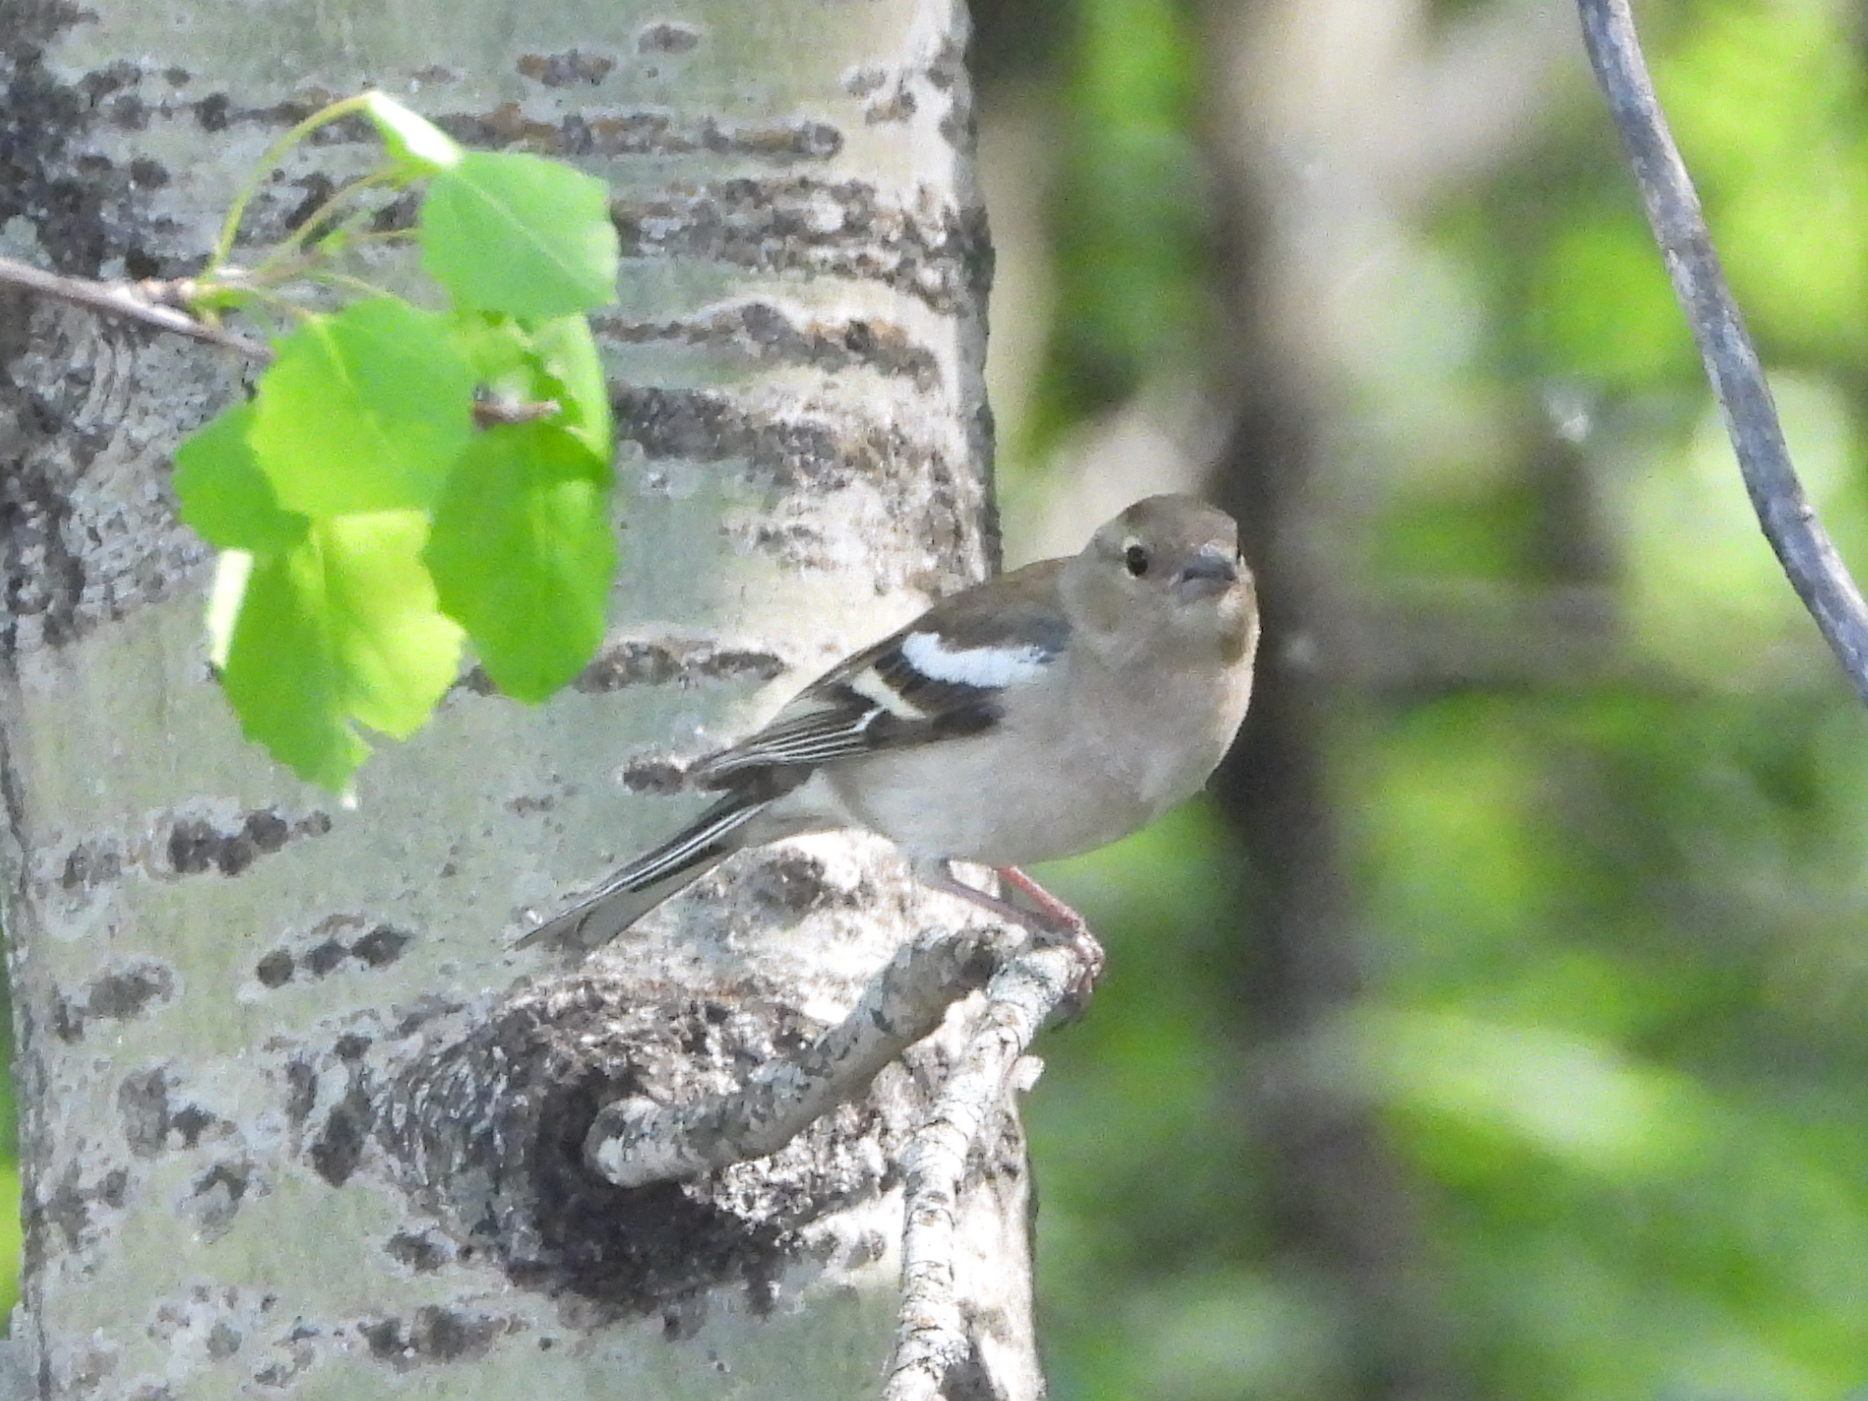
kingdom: Animalia
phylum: Chordata
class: Aves
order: Passeriformes
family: Fringillidae
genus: Fringilla
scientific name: Fringilla coelebs
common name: Common chaffinch
